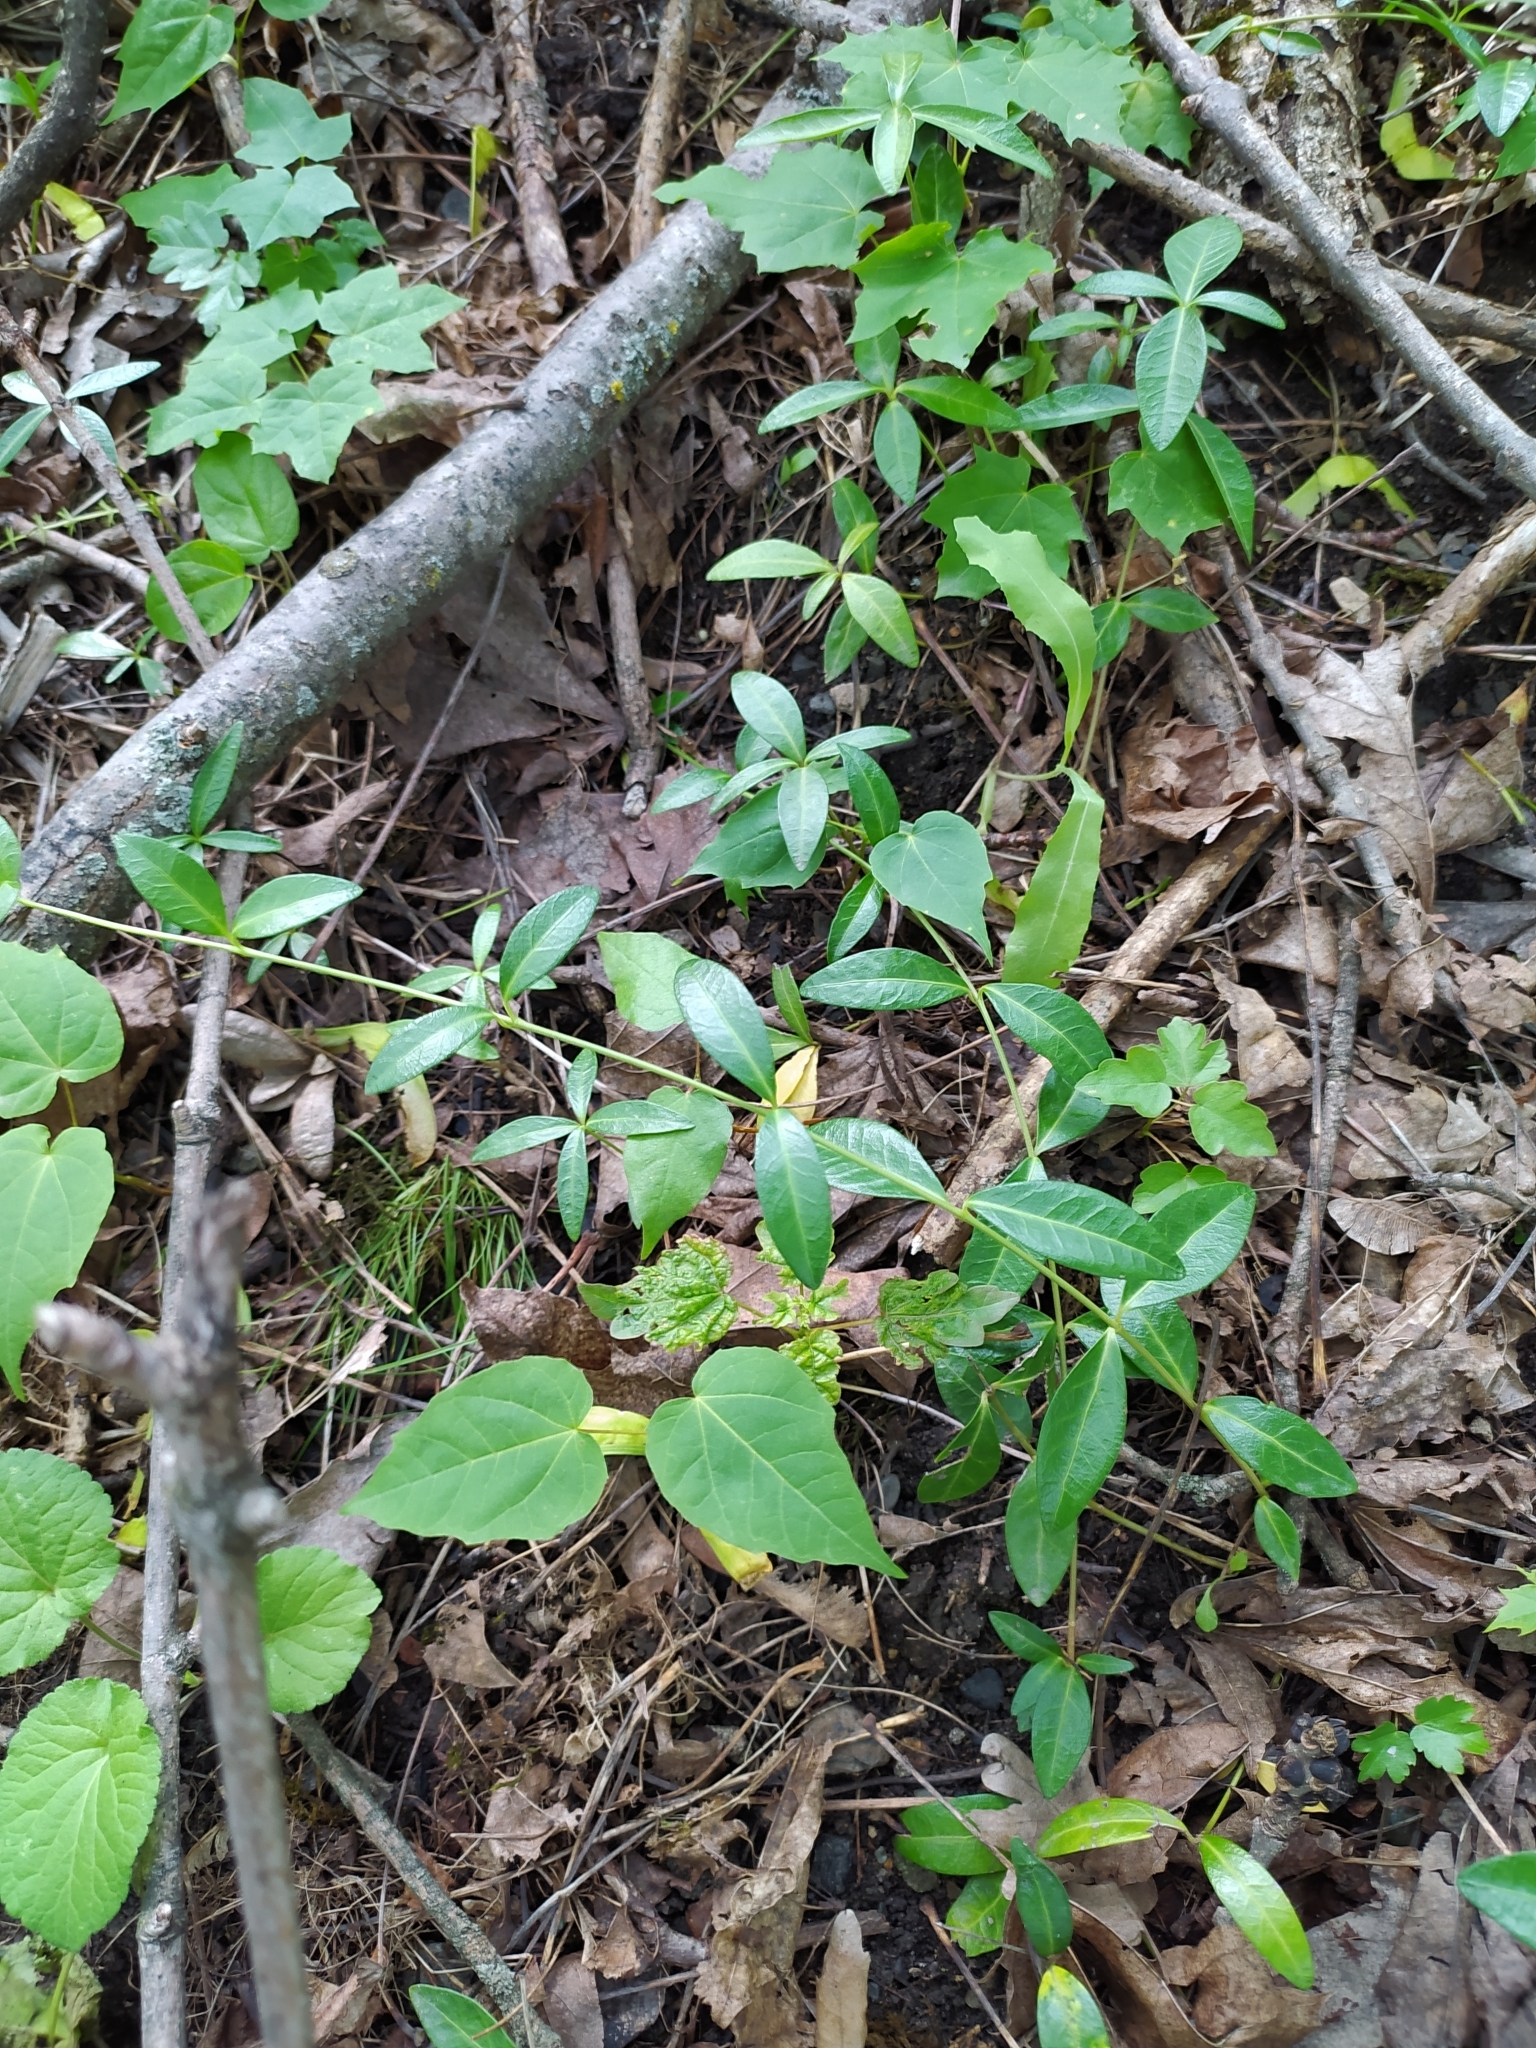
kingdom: Plantae
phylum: Tracheophyta
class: Magnoliopsida
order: Gentianales
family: Apocynaceae
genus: Vinca
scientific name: Vinca minor
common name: Lesser periwinkle
